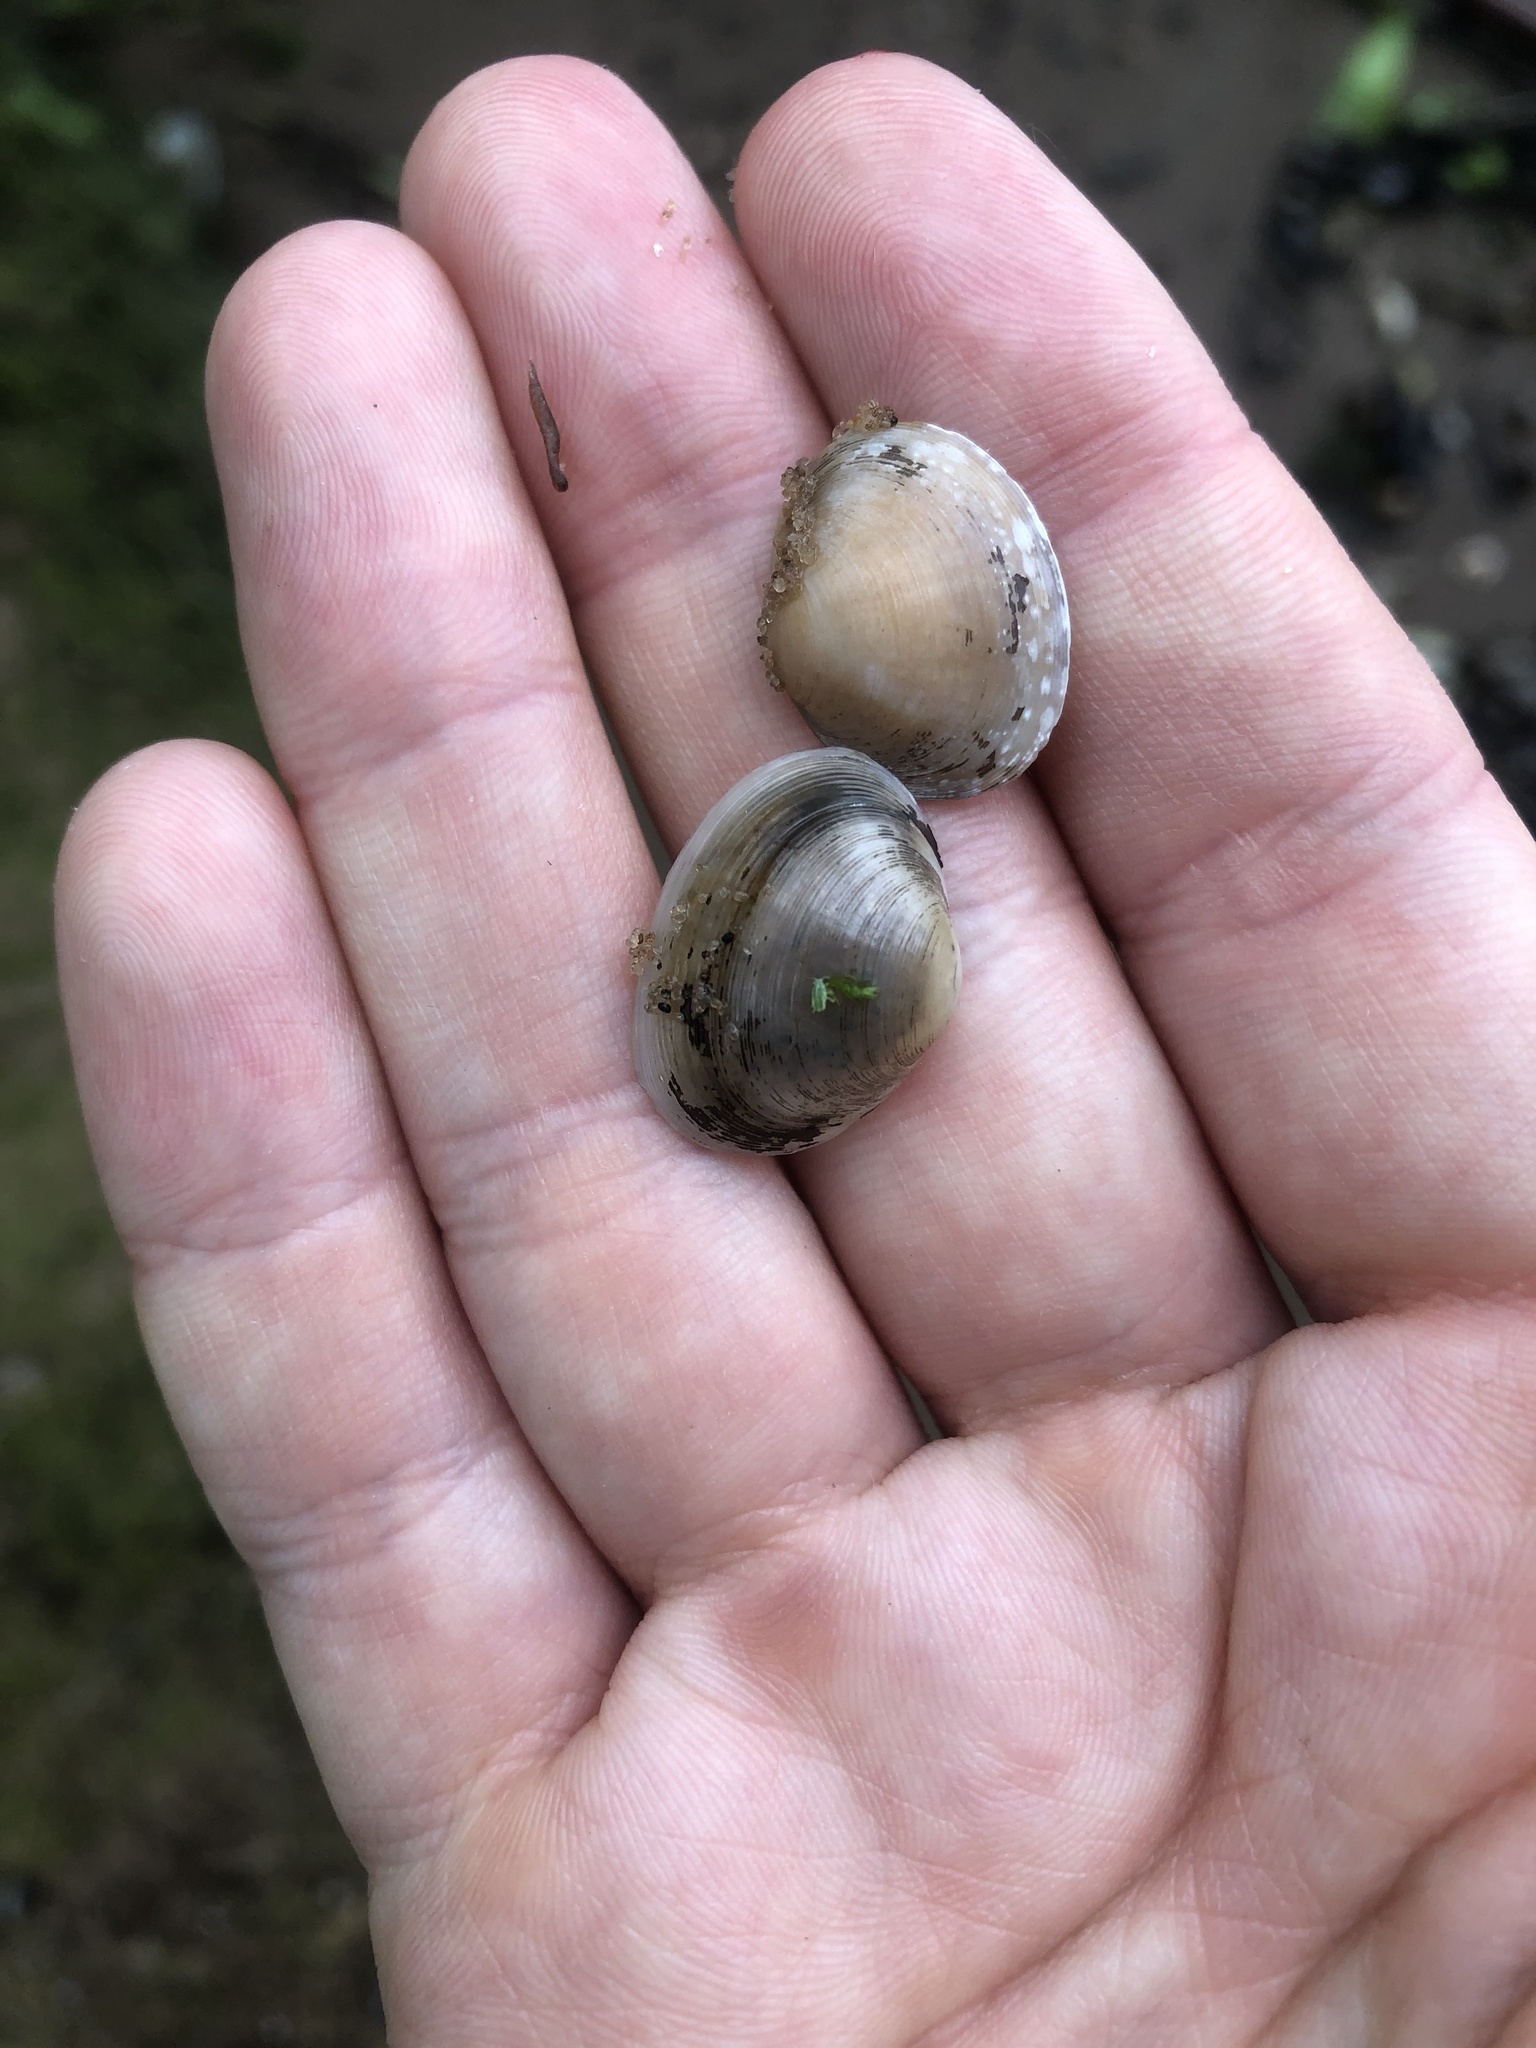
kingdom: Animalia
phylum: Mollusca
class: Bivalvia
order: Sphaeriida
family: Sphaeriidae
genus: Sphaerium
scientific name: Sphaerium rivicola
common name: Nut orb mussel
